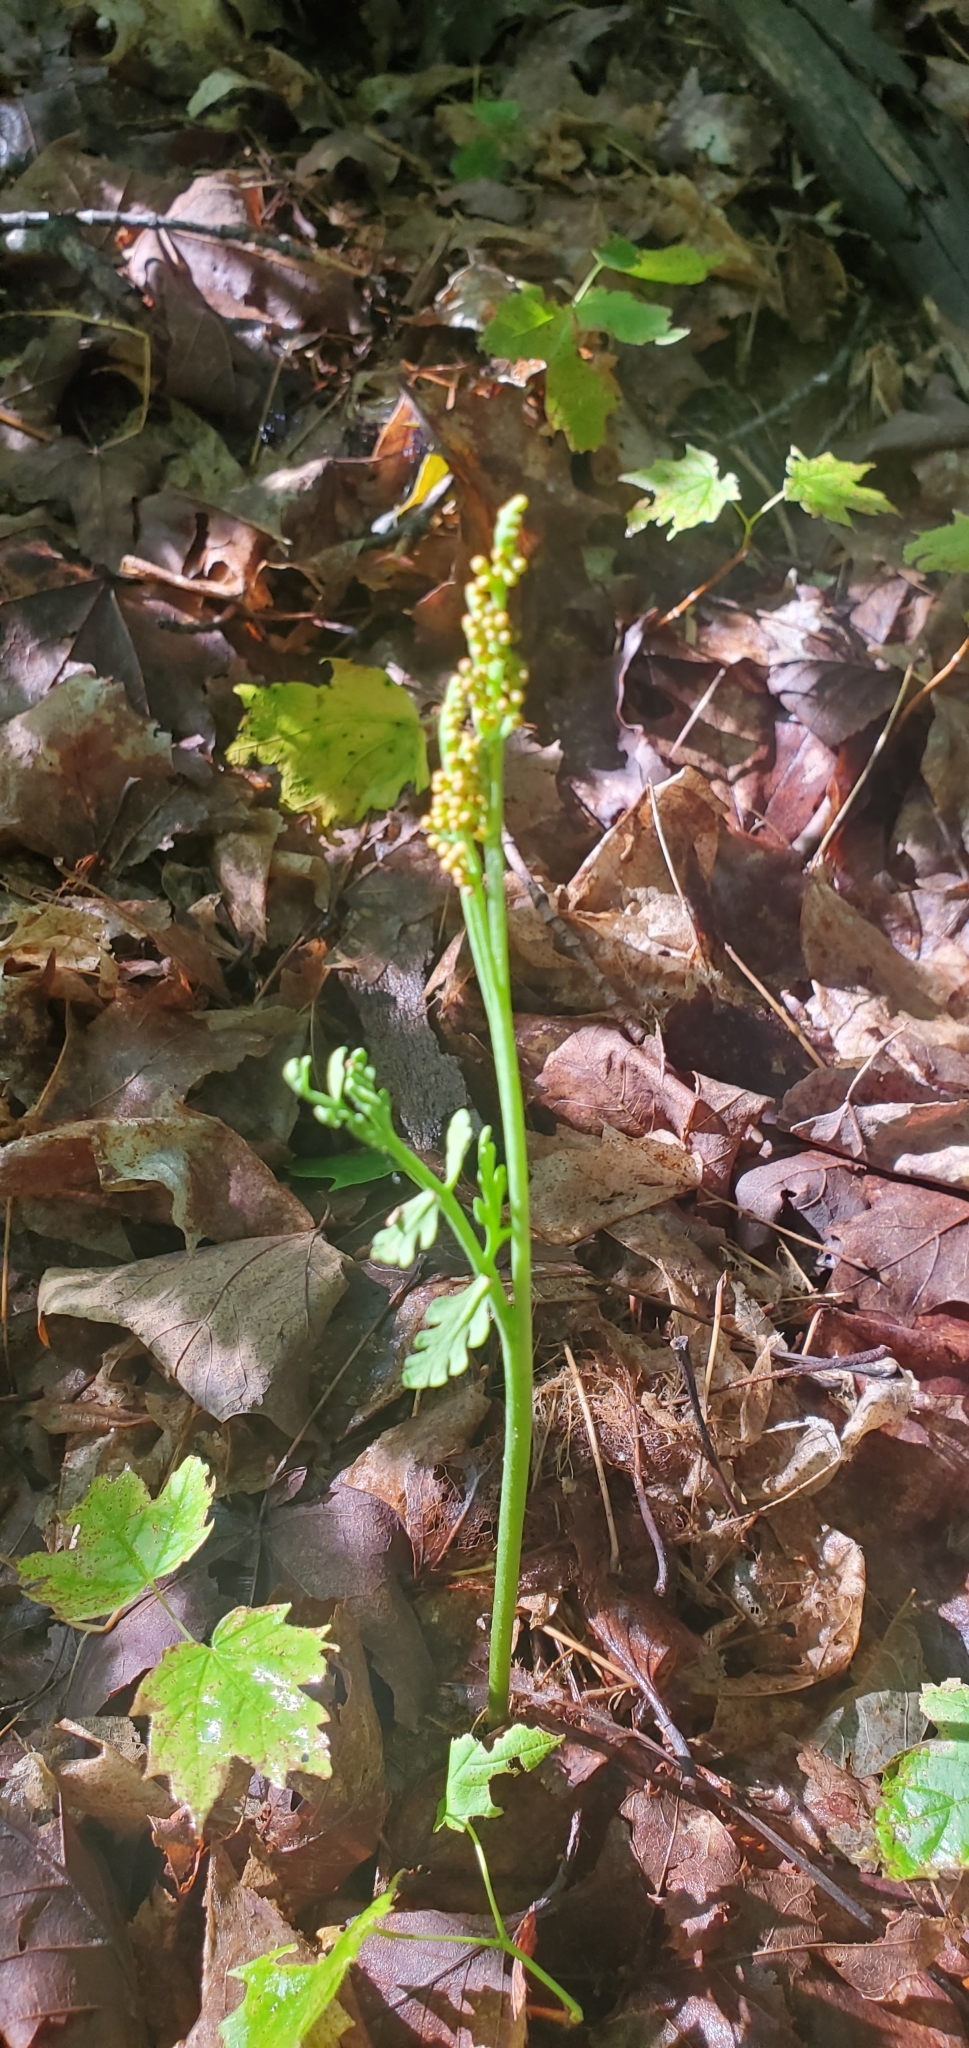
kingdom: Plantae
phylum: Tracheophyta
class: Polypodiopsida
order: Ophioglossales
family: Ophioglossaceae
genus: Botrychium
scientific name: Botrychium matricariifolium
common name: Branched moonwort
